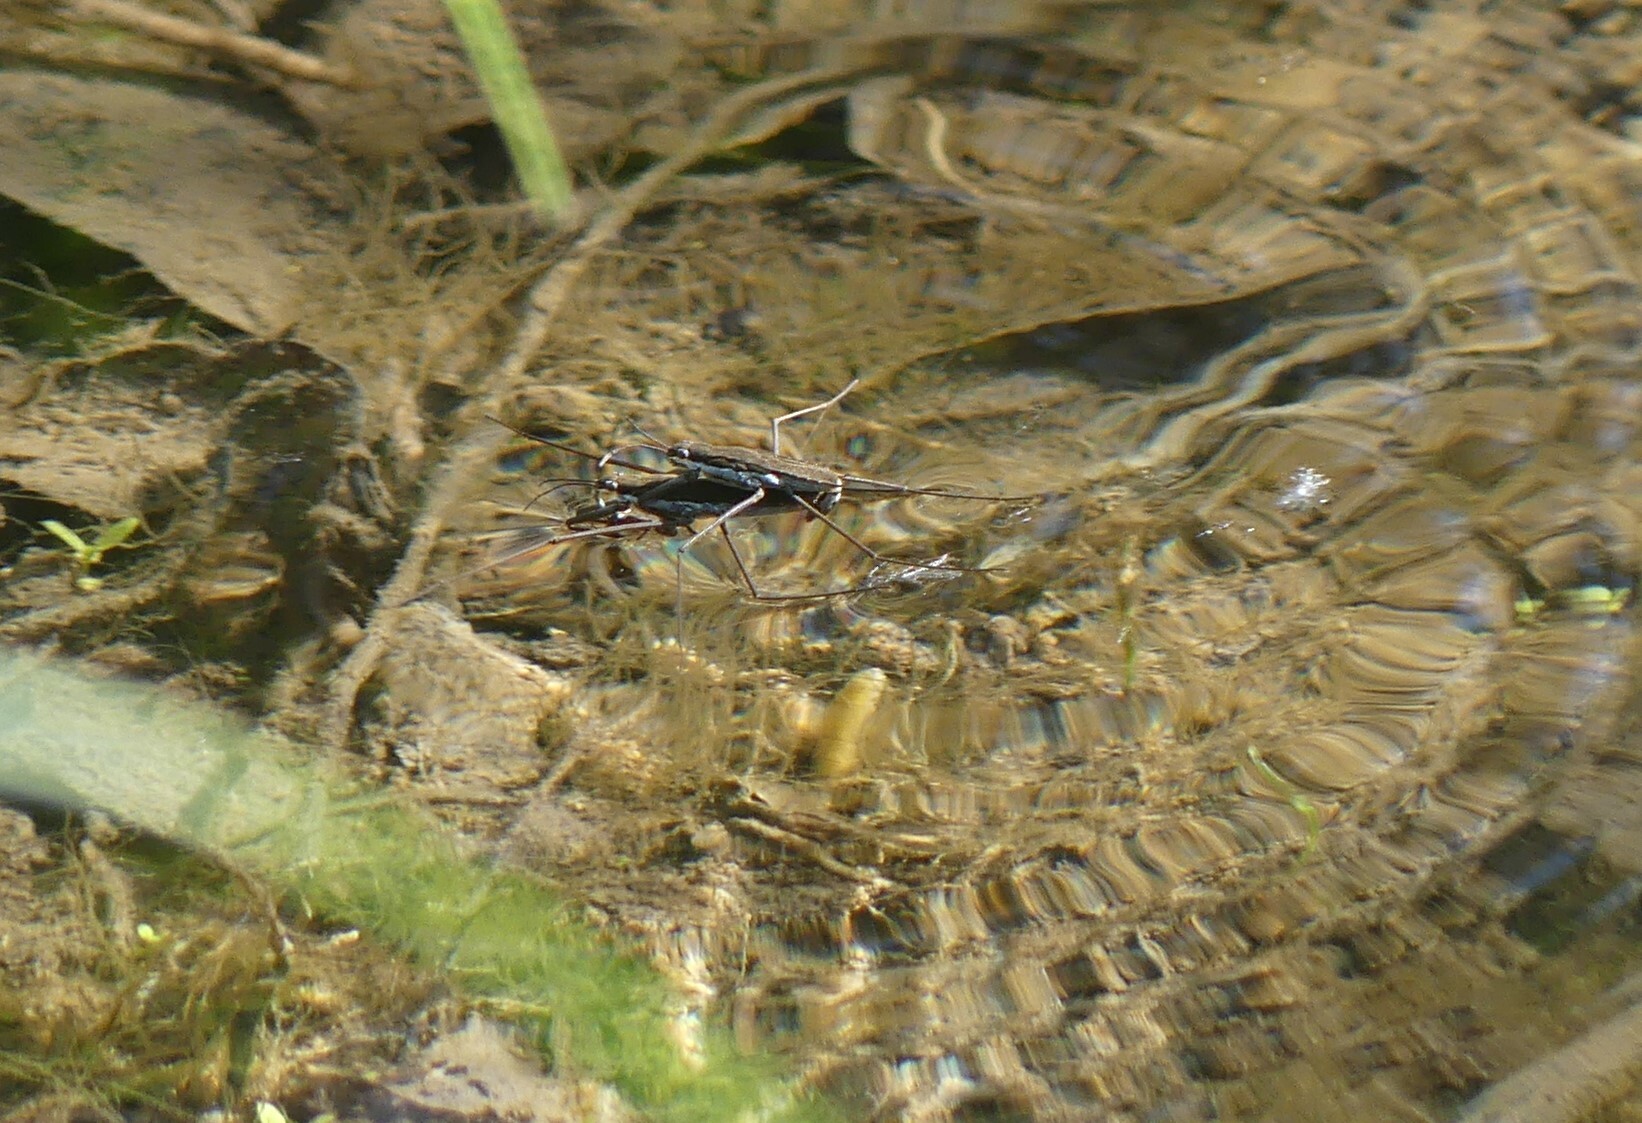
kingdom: Animalia
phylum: Arthropoda
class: Insecta
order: Hemiptera
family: Gerridae
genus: Aquarius
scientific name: Aquarius remigis
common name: Common water strider
